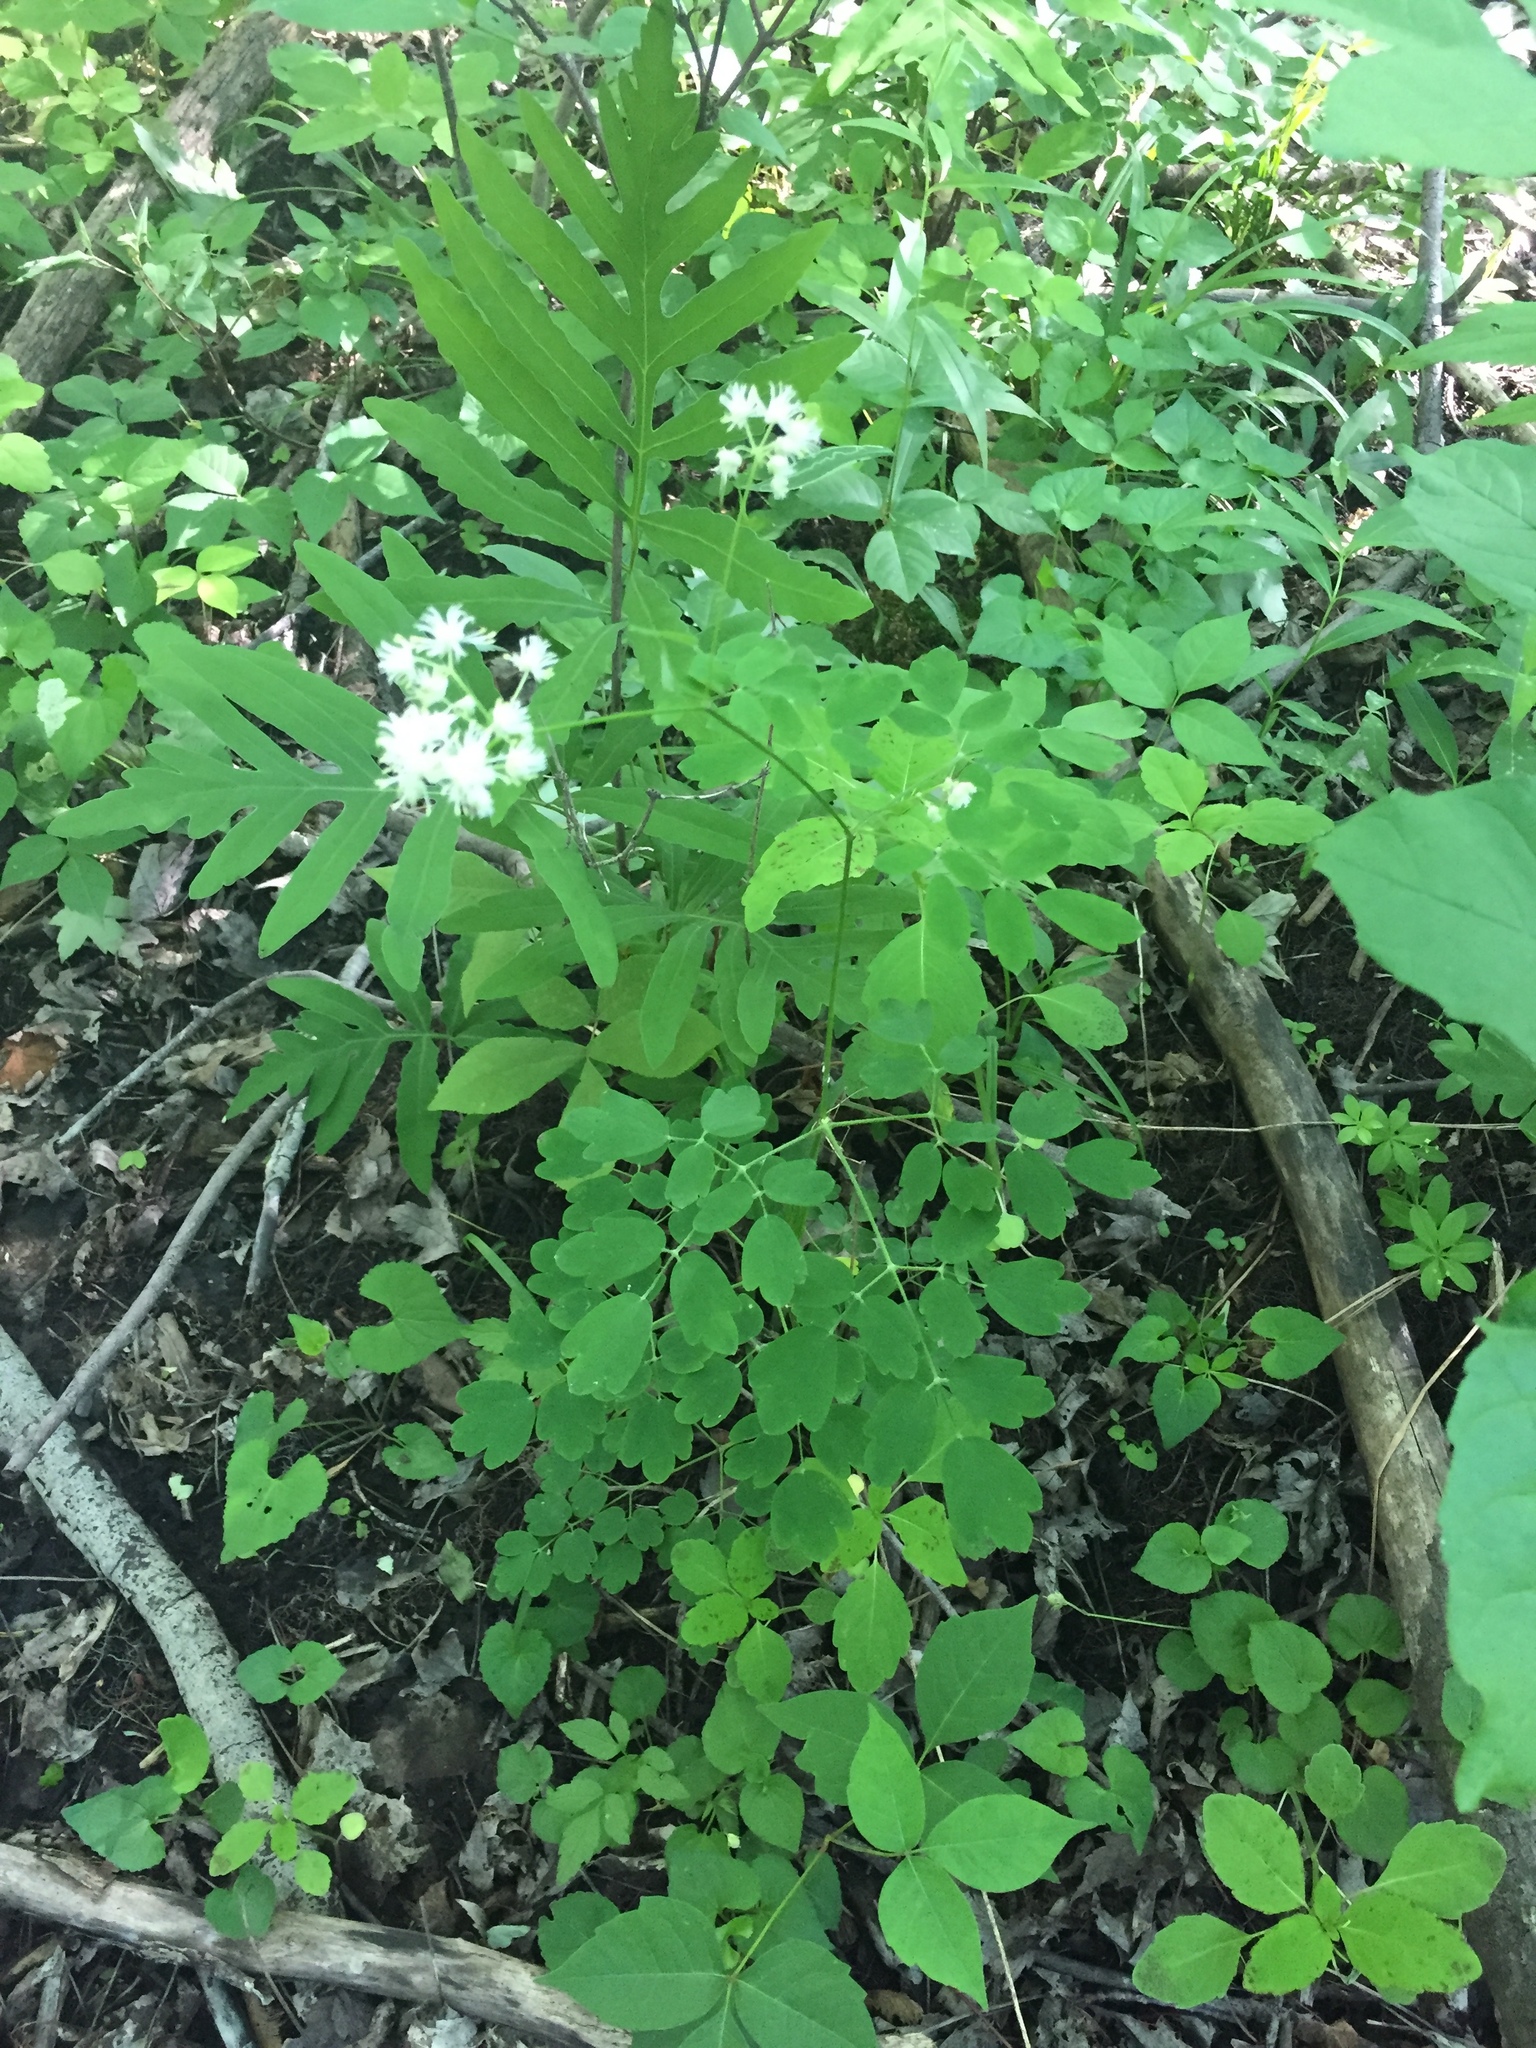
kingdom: Plantae
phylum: Tracheophyta
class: Magnoliopsida
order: Ranunculales
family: Ranunculaceae
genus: Thalictrum
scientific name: Thalictrum pubescens
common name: King-of-the-meadow
